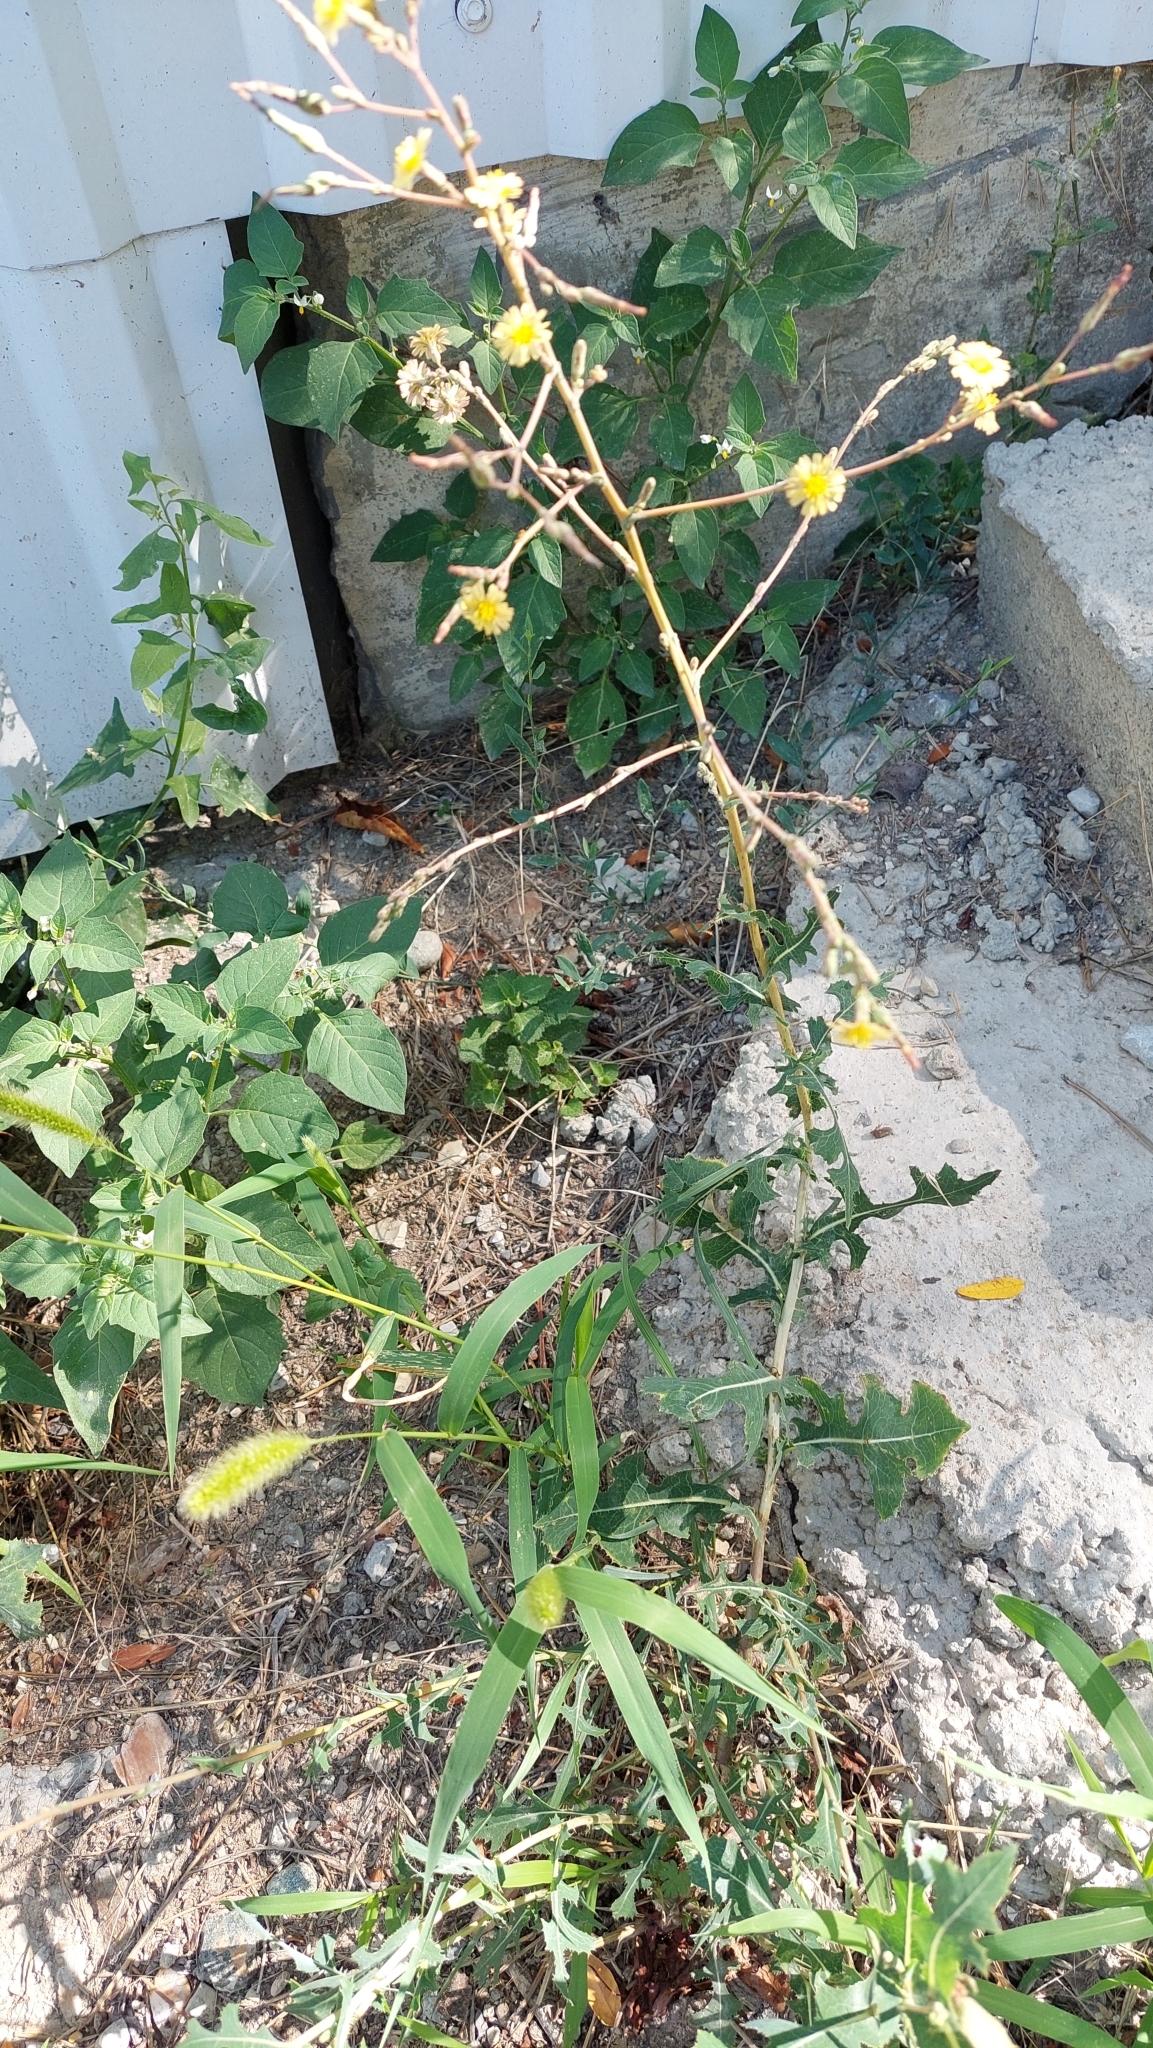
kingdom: Plantae
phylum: Tracheophyta
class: Magnoliopsida
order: Asterales
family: Asteraceae
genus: Lactuca
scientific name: Lactuca serriola
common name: Prickly lettuce
